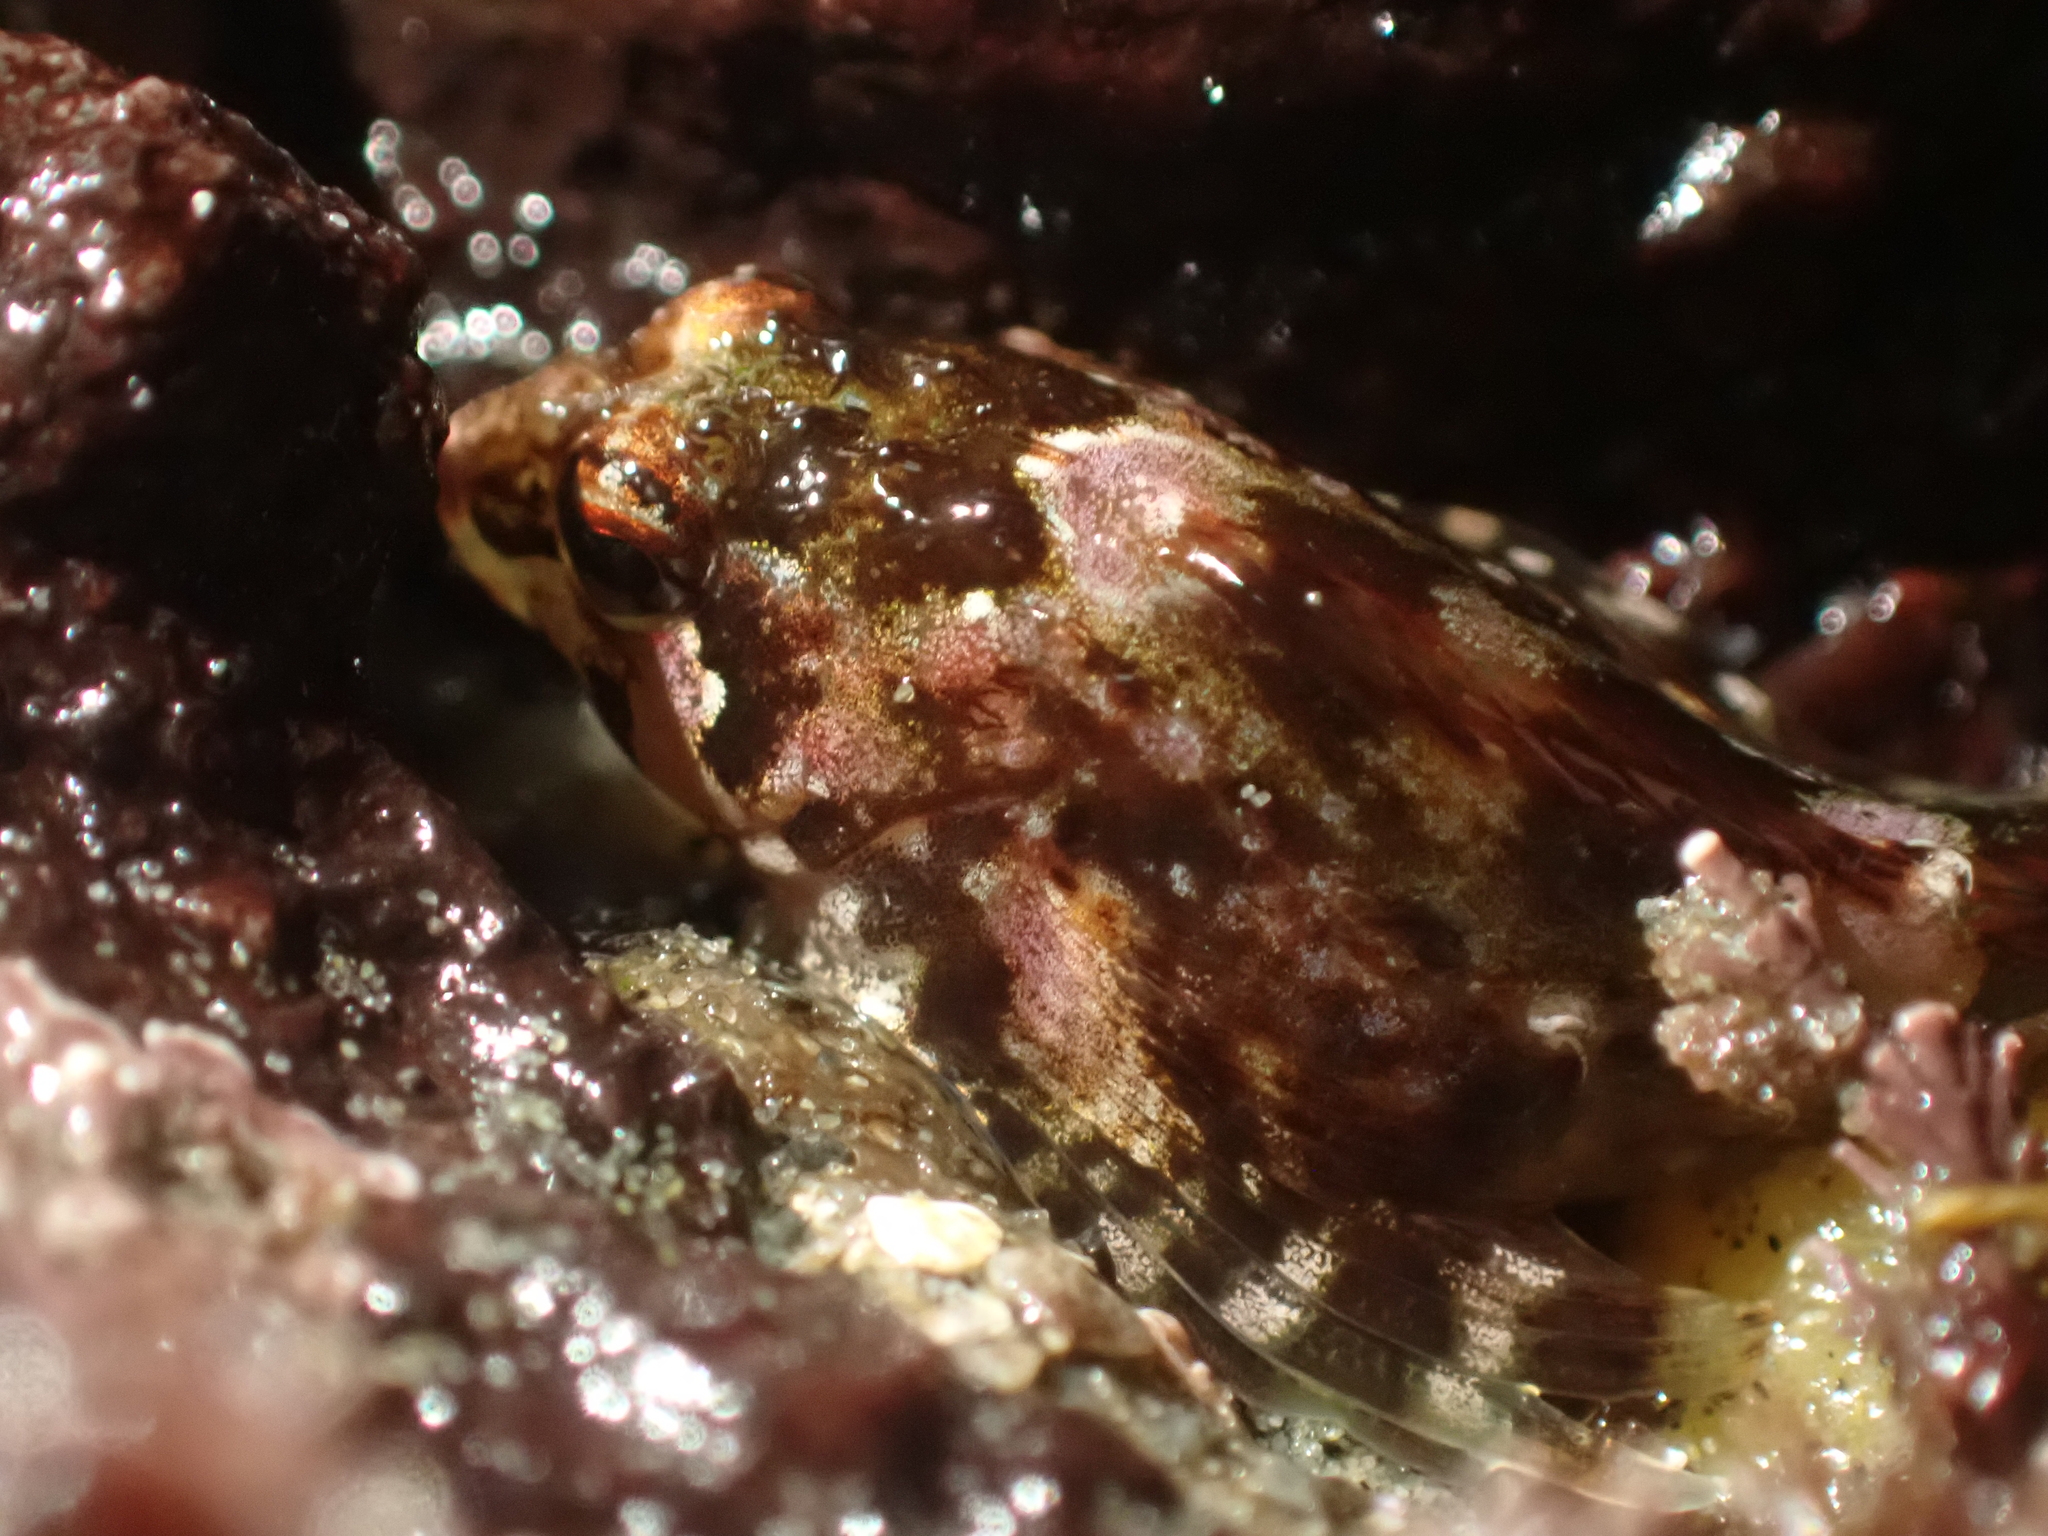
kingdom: Animalia
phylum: Chordata
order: Scorpaeniformes
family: Cottidae
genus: Clinocottus
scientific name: Clinocottus embryum
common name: Calico sculpin
